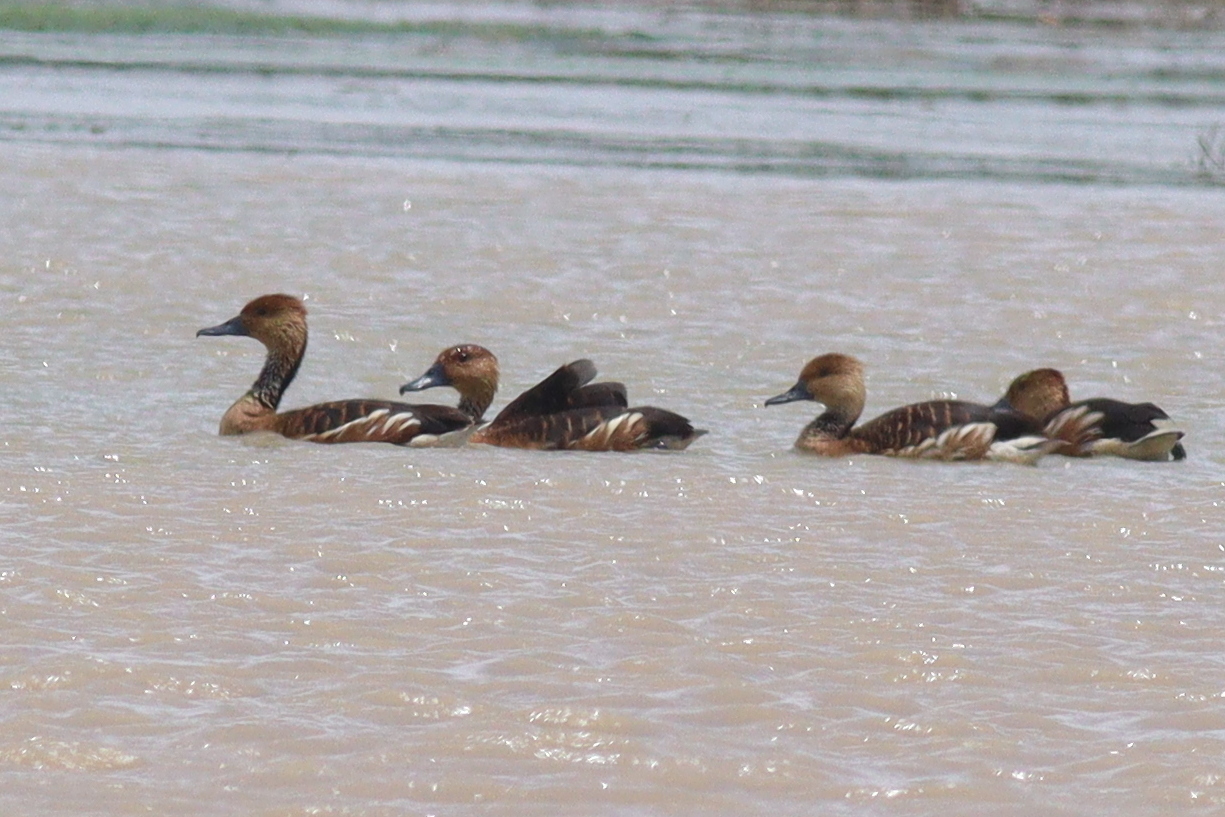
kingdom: Animalia
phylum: Chordata
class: Aves
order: Anseriformes
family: Anatidae
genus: Dendrocygna
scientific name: Dendrocygna bicolor
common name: Fulvous whistling duck
